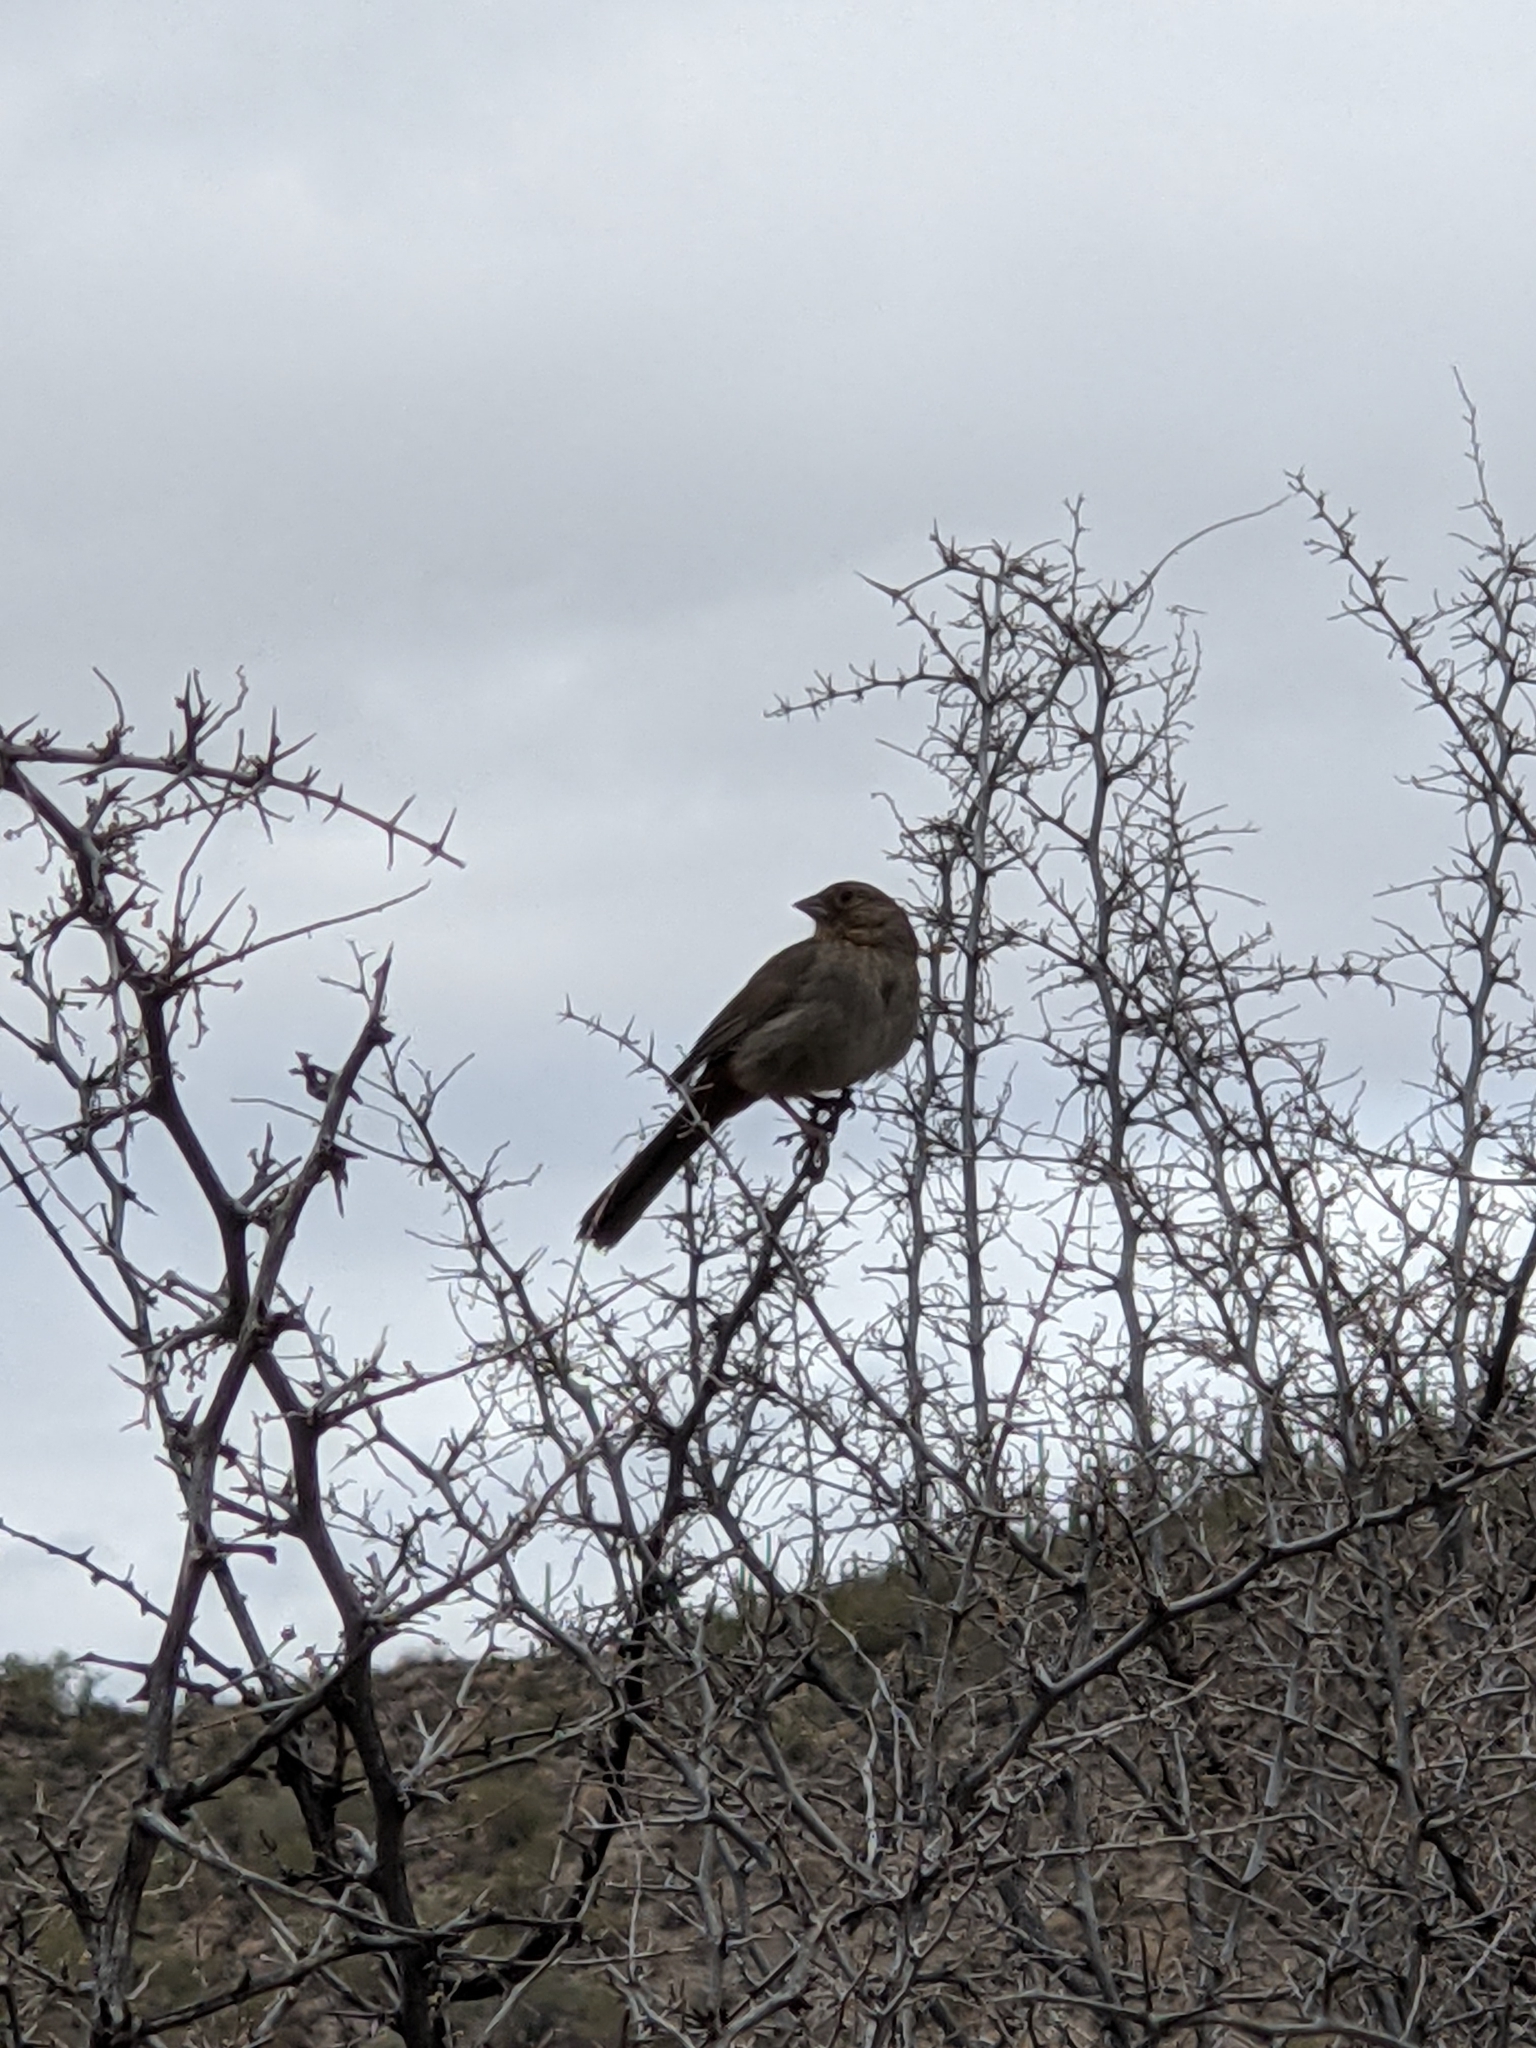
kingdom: Animalia
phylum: Chordata
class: Aves
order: Passeriformes
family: Passerellidae
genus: Melozone
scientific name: Melozone aberti
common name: Abert's towhee
